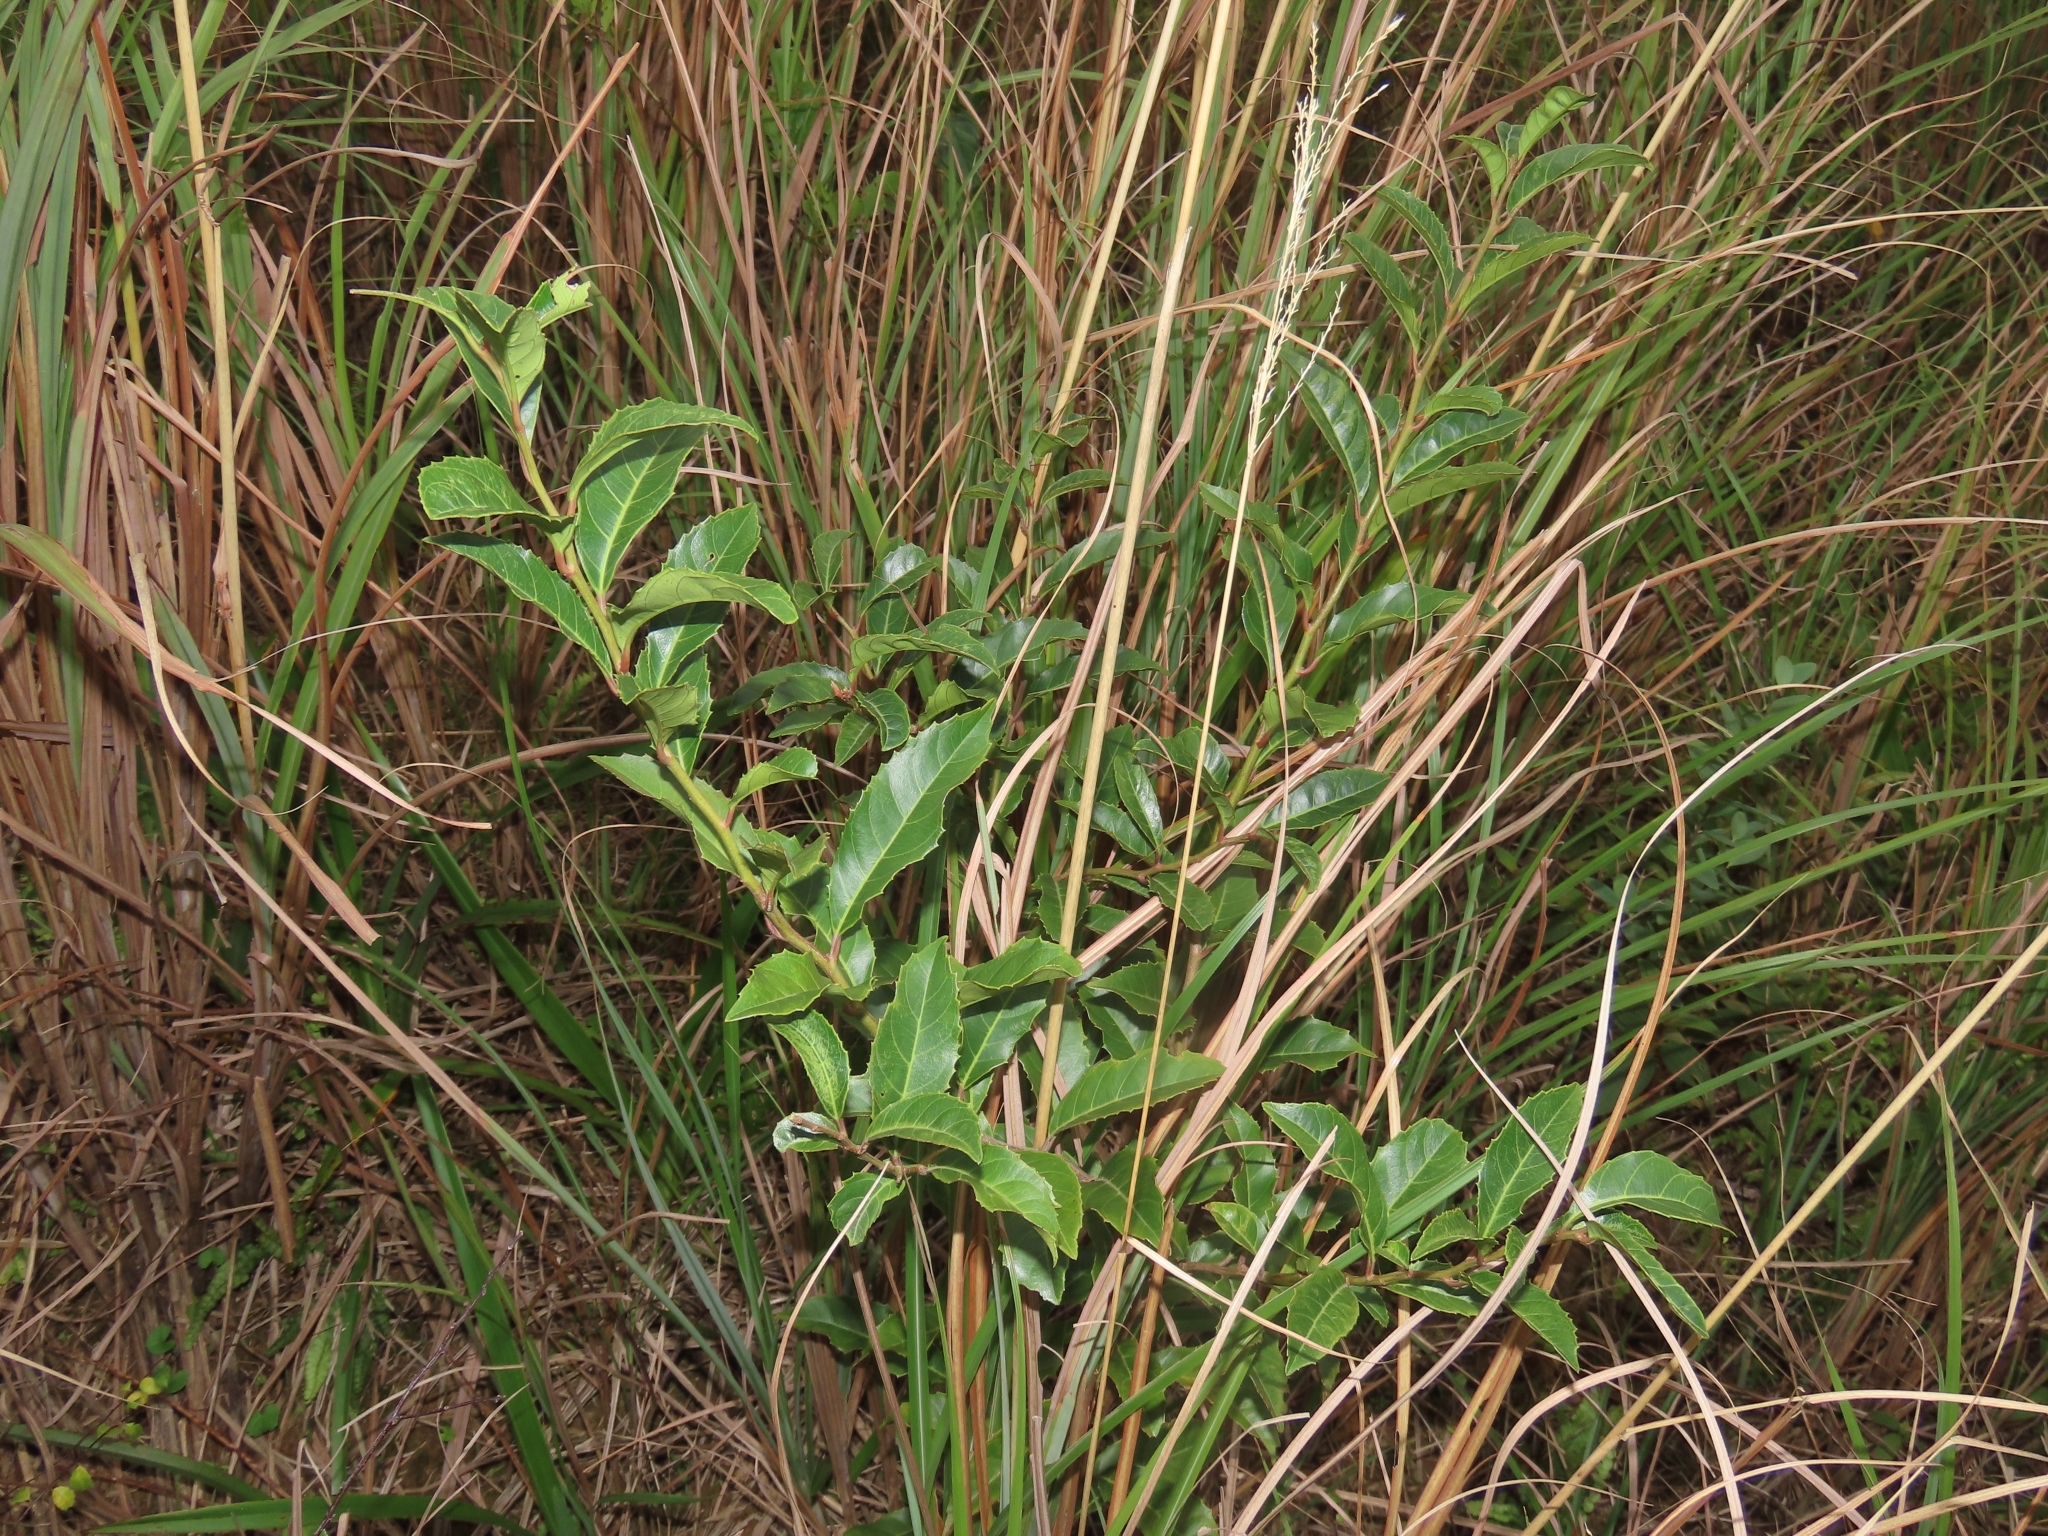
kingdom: Plantae
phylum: Tracheophyta
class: Magnoliopsida
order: Saxifragales
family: Iteaceae
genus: Itea
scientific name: Itea oldhamii
